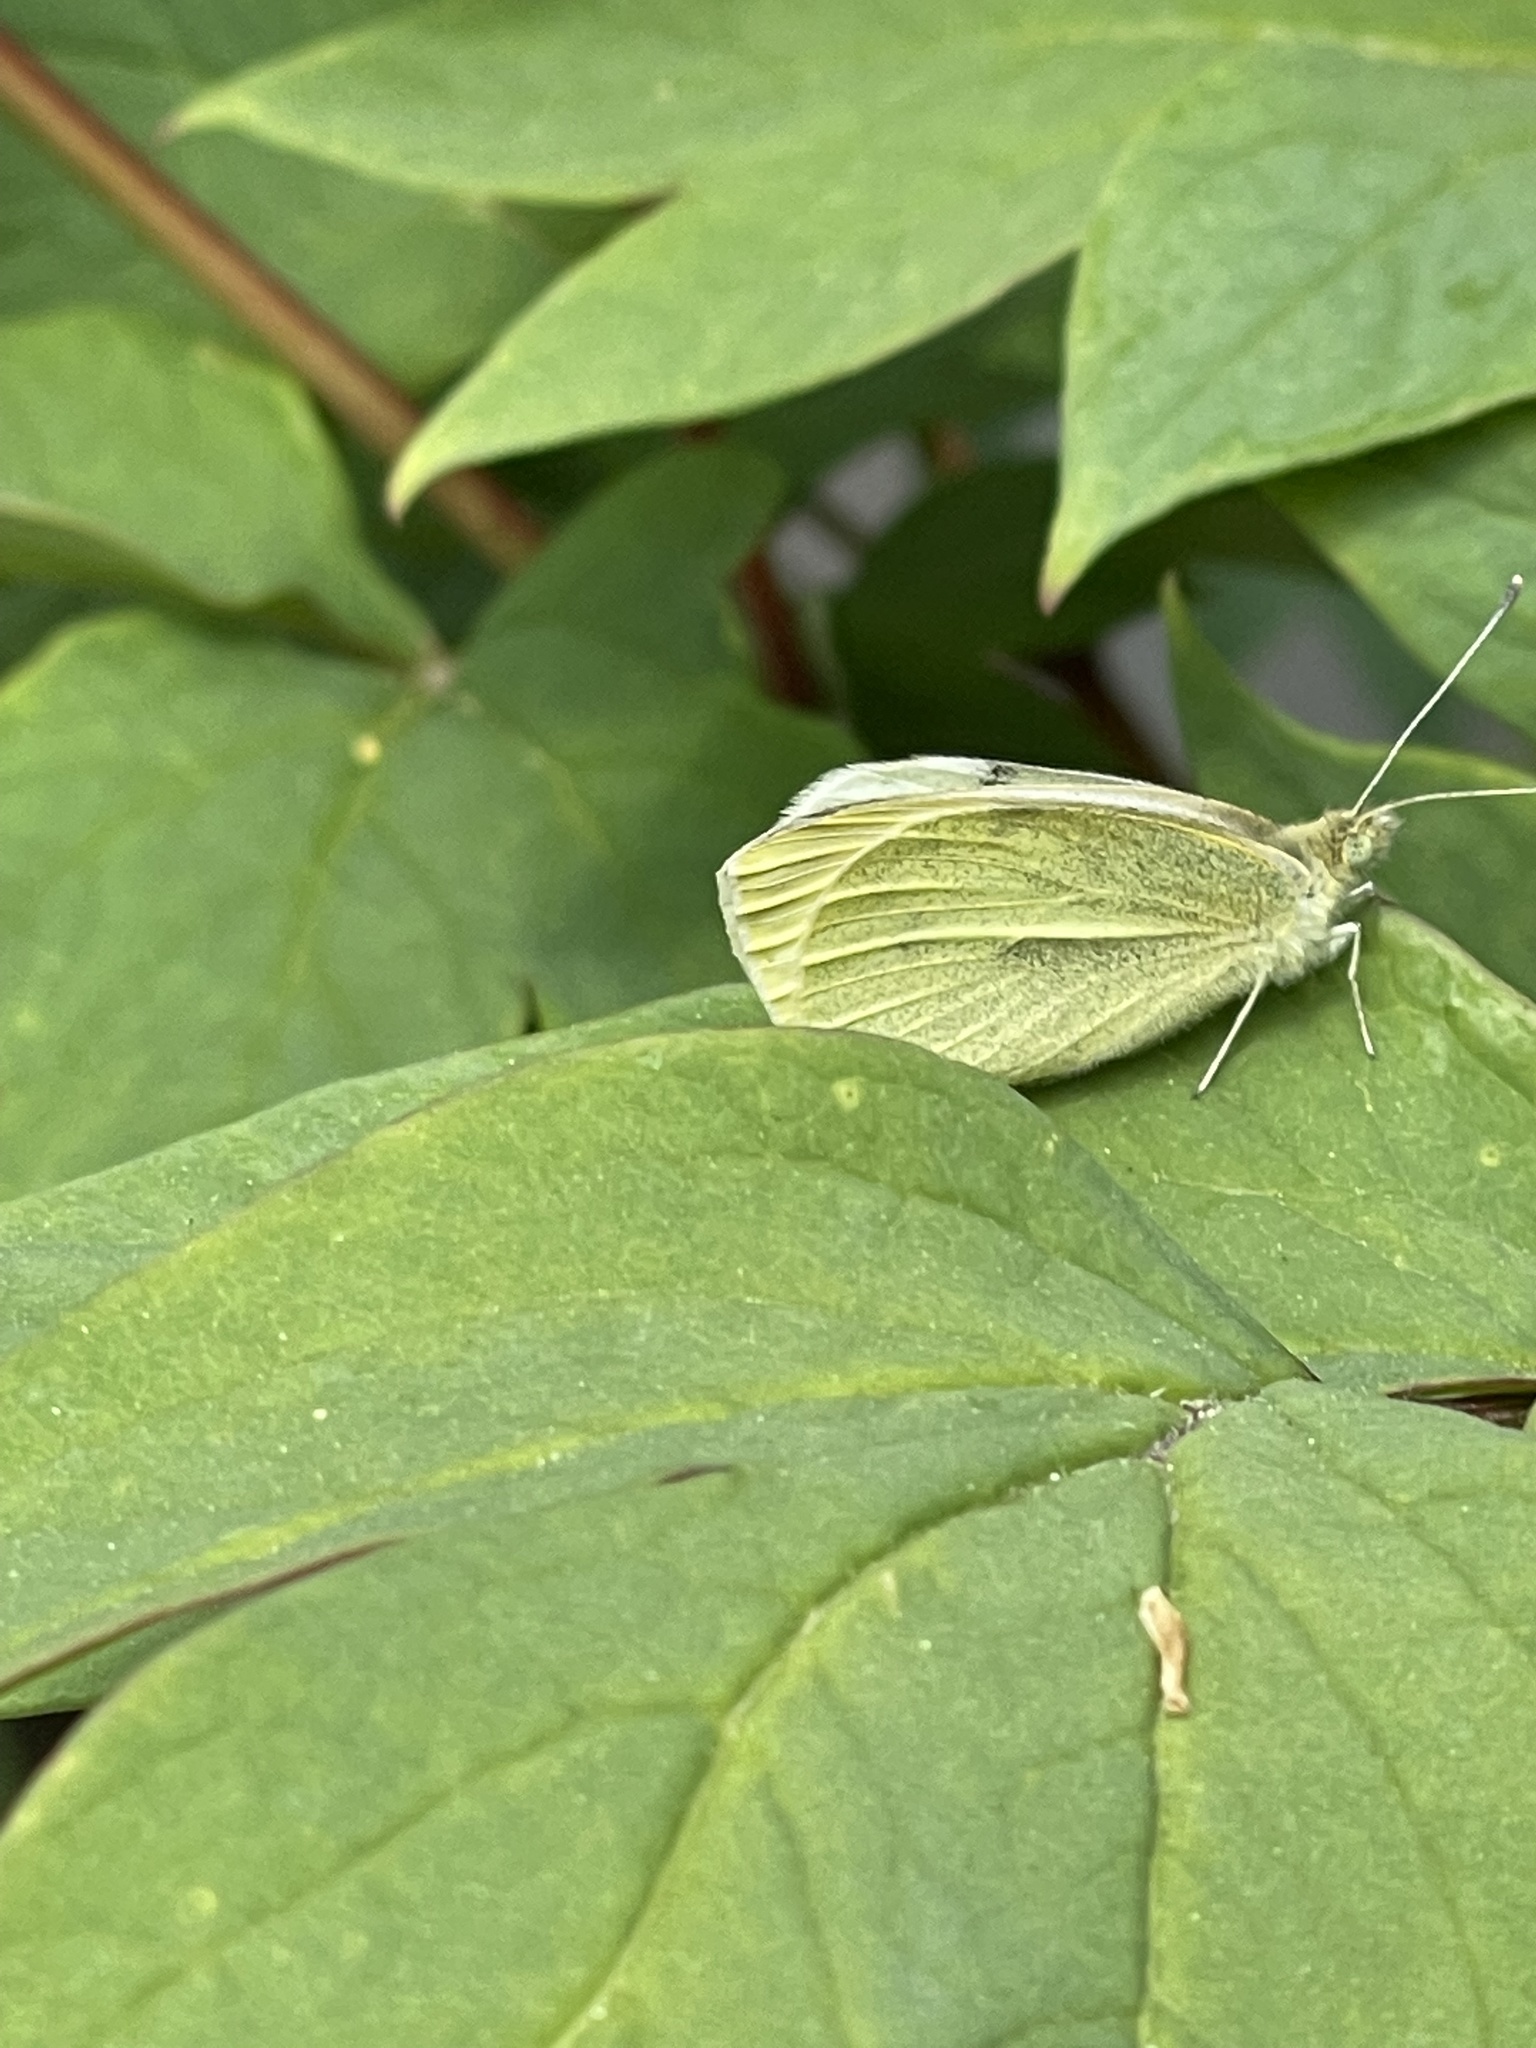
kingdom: Animalia
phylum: Arthropoda
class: Insecta
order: Lepidoptera
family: Pieridae
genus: Pieris
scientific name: Pieris rapae
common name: Small white
